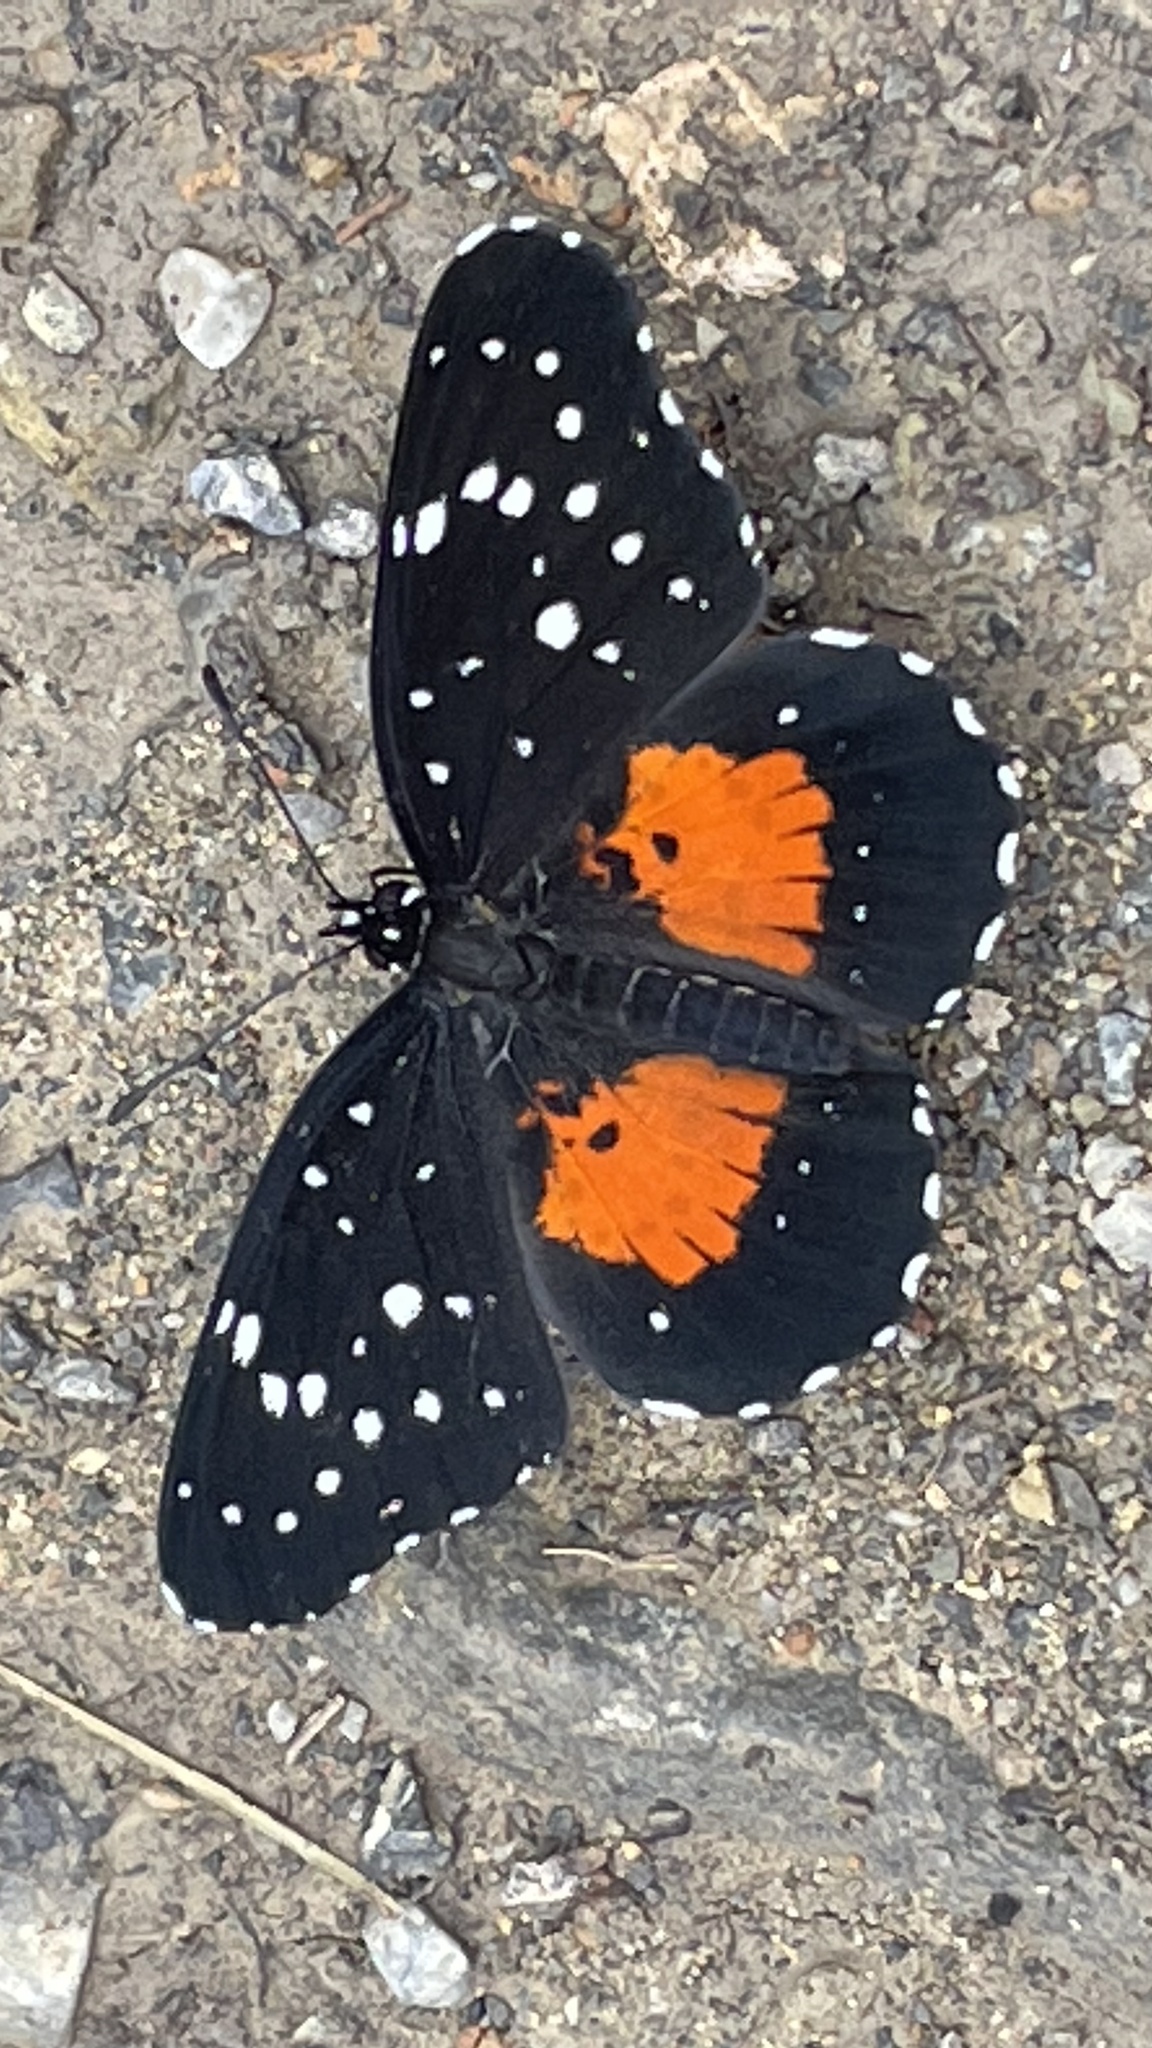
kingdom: Animalia
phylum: Arthropoda
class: Insecta
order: Lepidoptera
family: Nymphalidae
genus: Chlosyne
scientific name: Chlosyne janais
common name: Crimson patch
